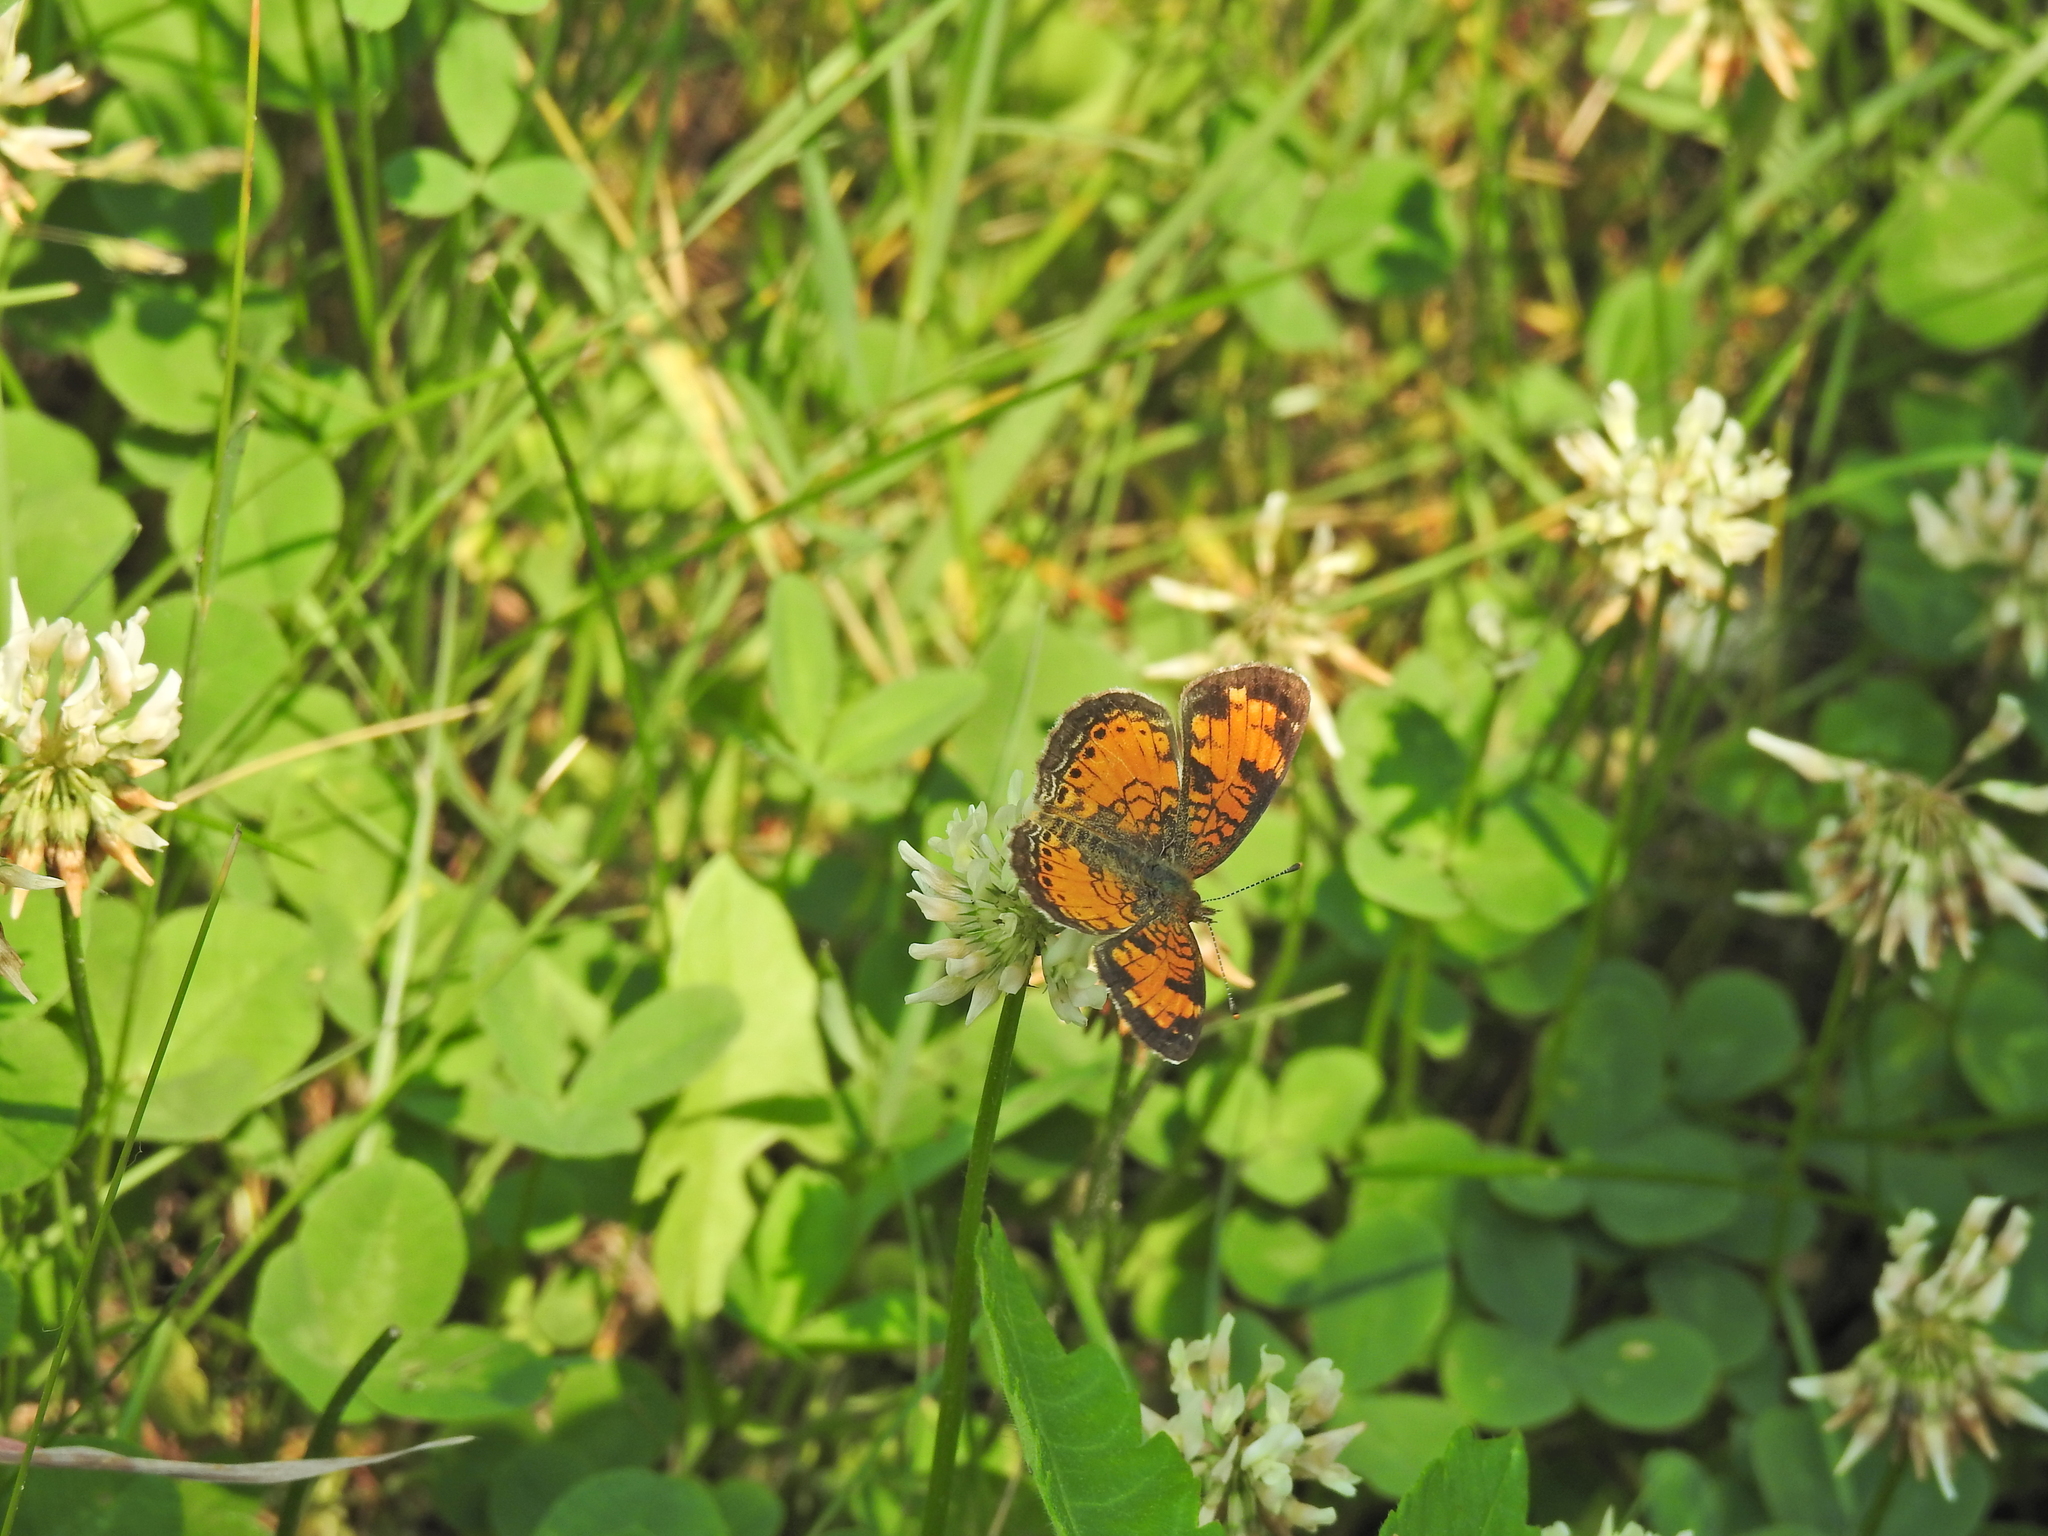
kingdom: Animalia
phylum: Arthropoda
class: Insecta
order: Lepidoptera
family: Nymphalidae
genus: Phyciodes
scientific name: Phyciodes tharos
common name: Pearl crescent
